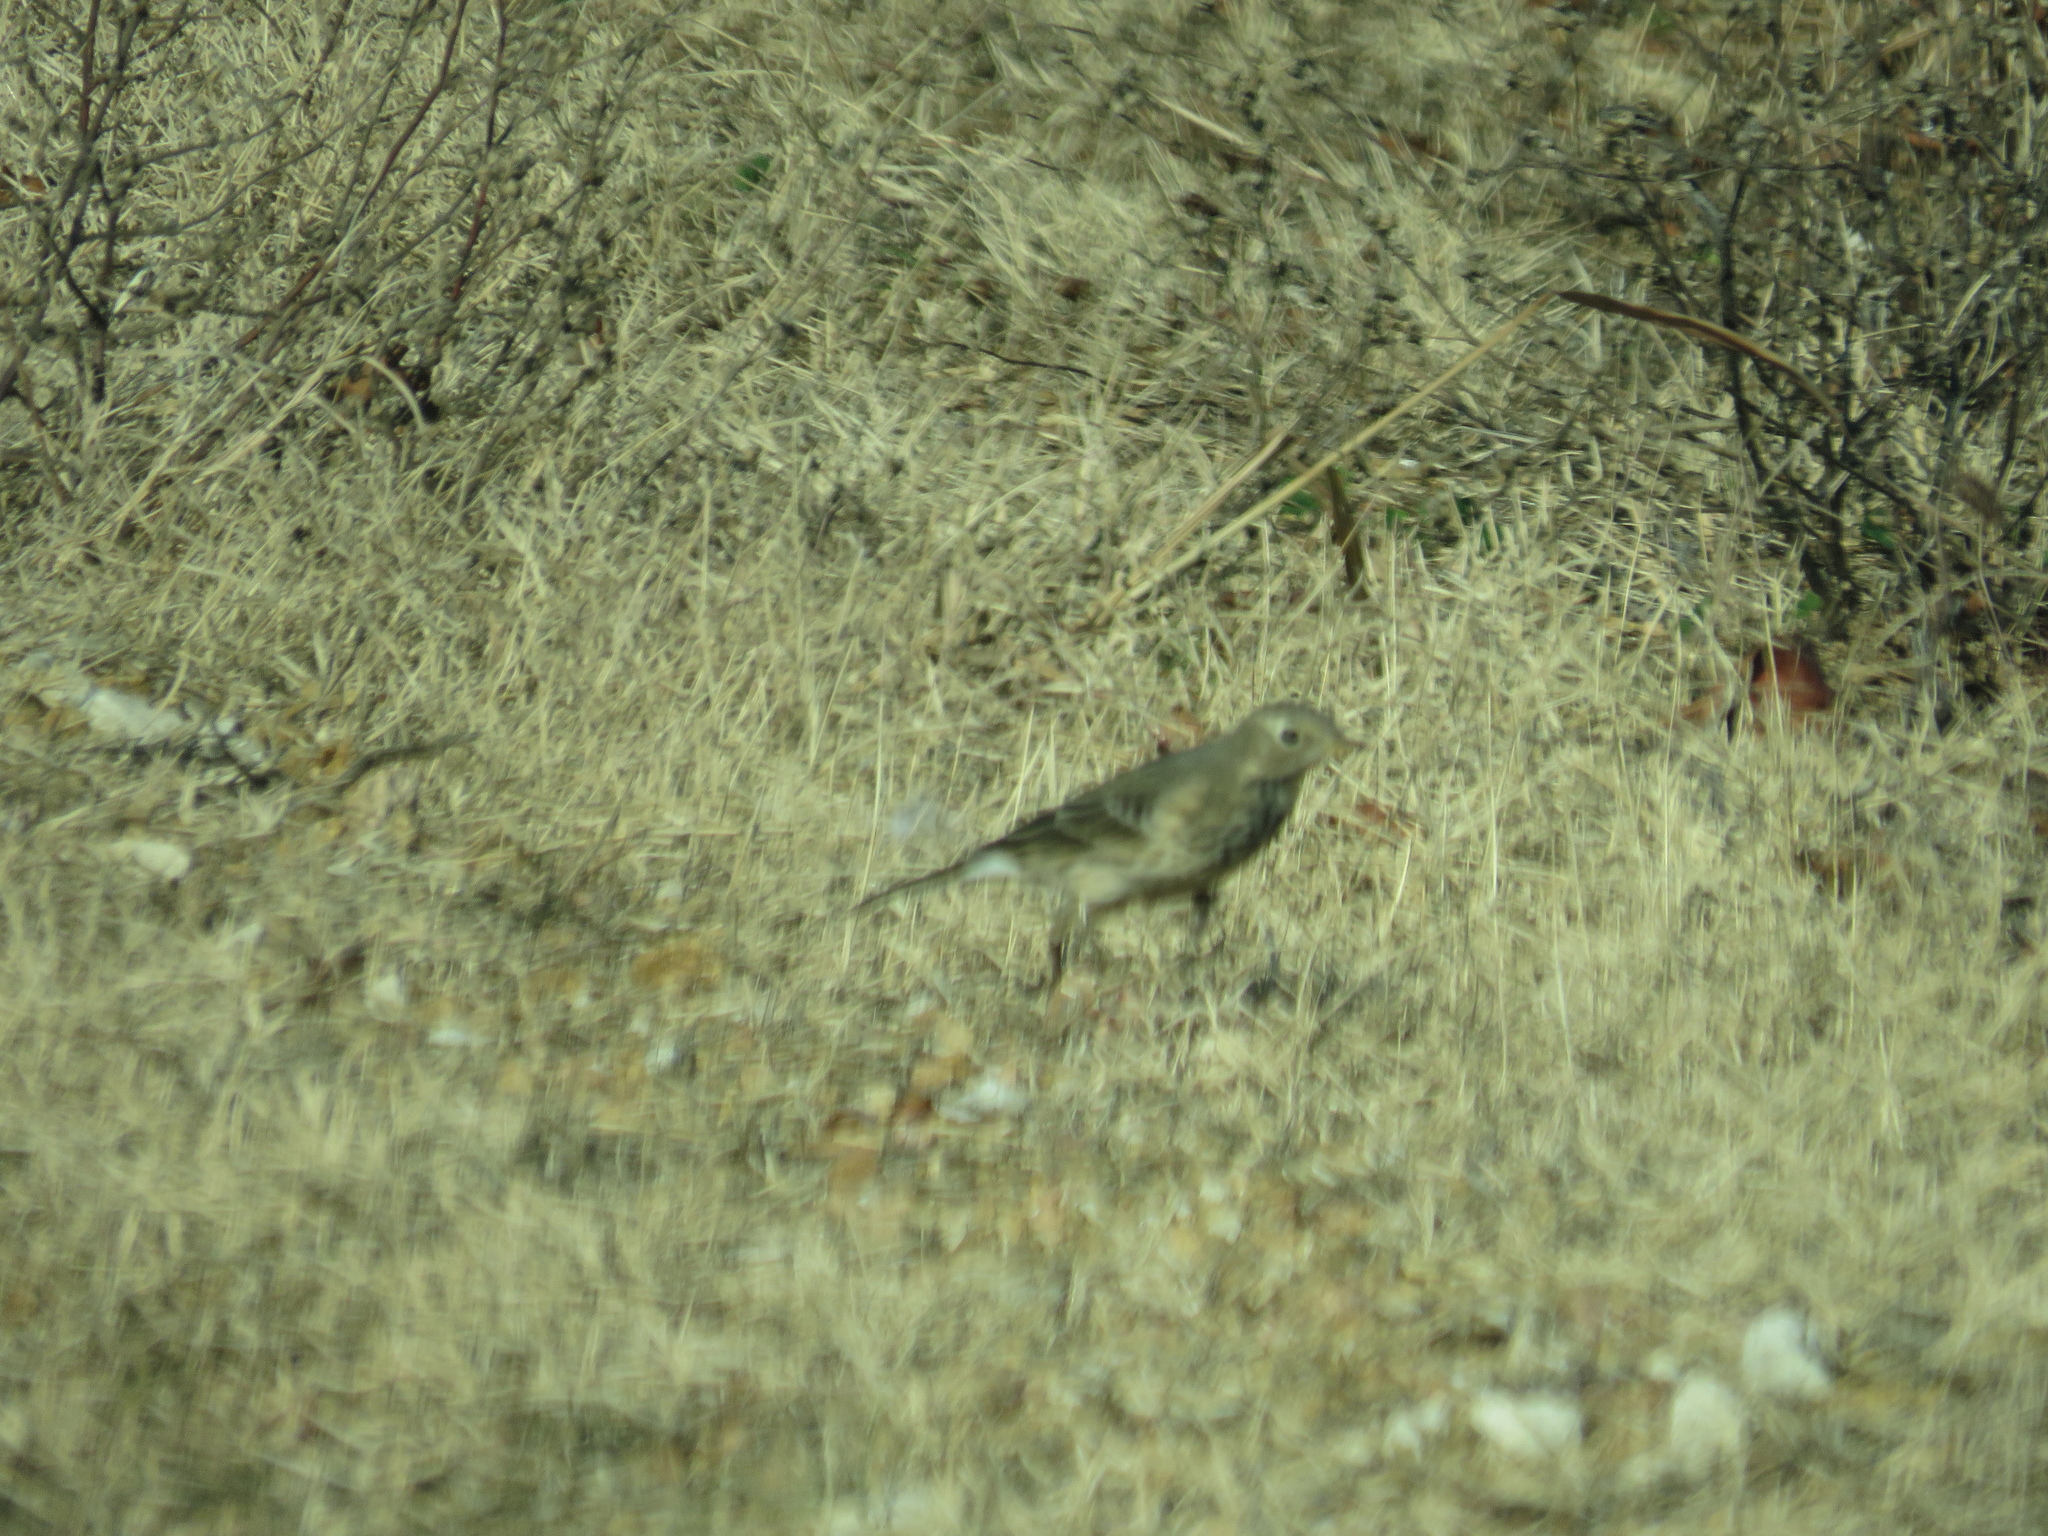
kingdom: Animalia
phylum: Chordata
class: Aves
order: Passeriformes
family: Motacillidae
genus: Anthus
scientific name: Anthus rubescens
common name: Buff-bellied pipit
